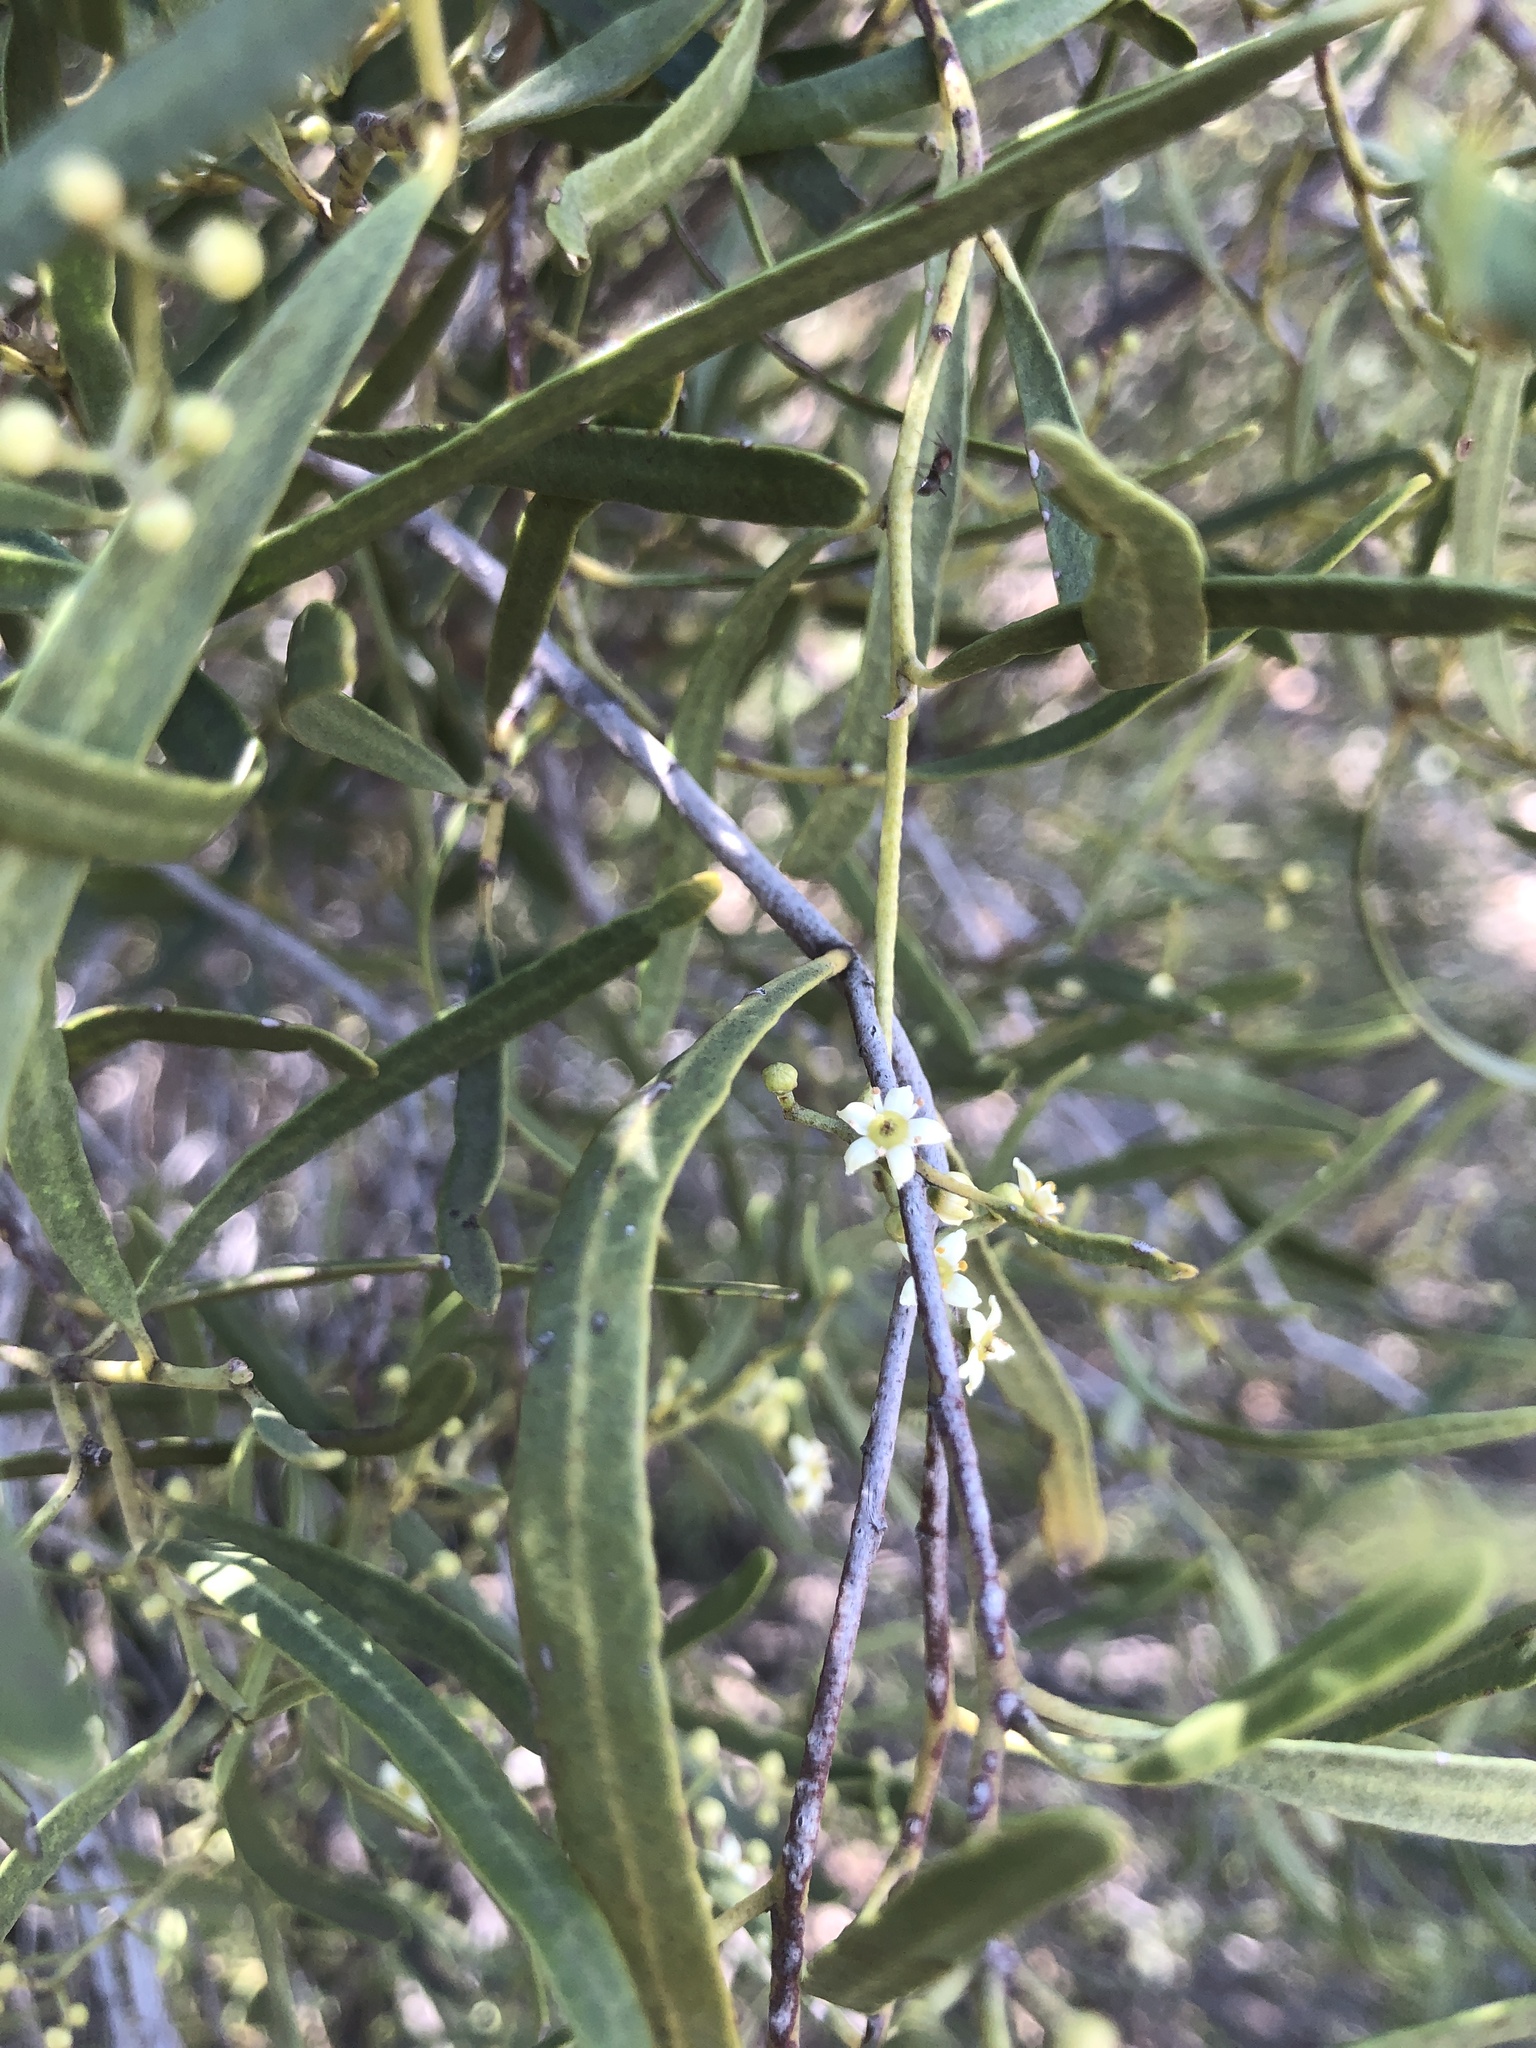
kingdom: Plantae
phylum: Tracheophyta
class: Magnoliopsida
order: Sapindales
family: Rutaceae
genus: Geijera
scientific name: Geijera linearifolia
